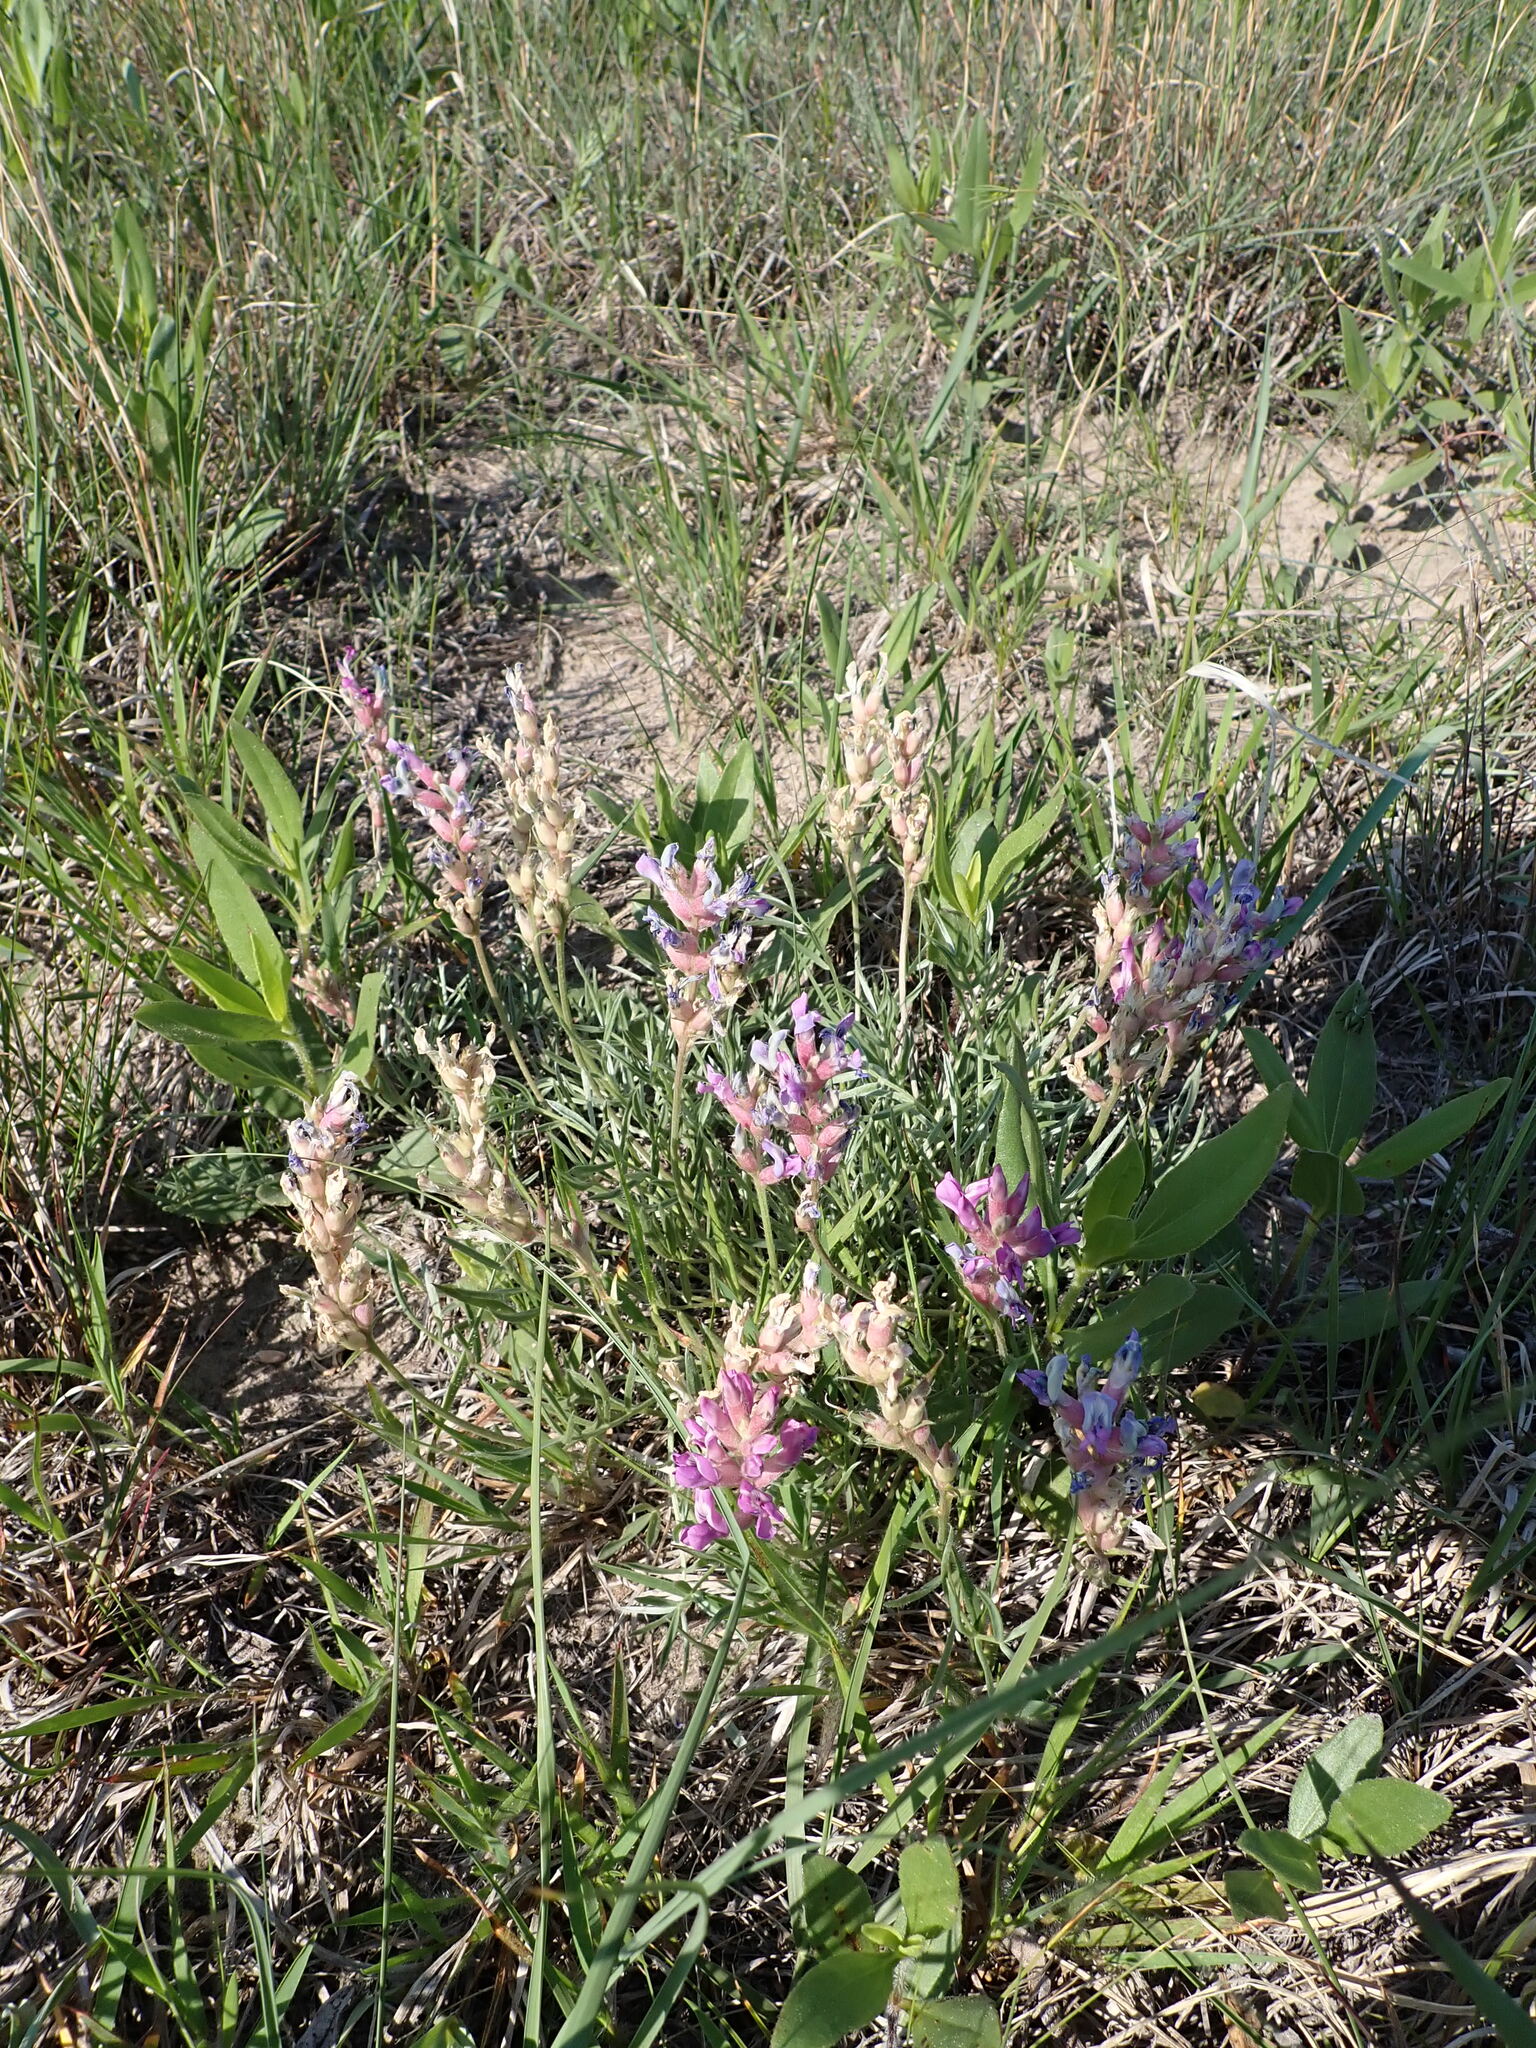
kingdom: Plantae
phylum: Tracheophyta
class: Magnoliopsida
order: Fabales
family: Fabaceae
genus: Oxytropis
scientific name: Oxytropis lambertii
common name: Purple locoweed
